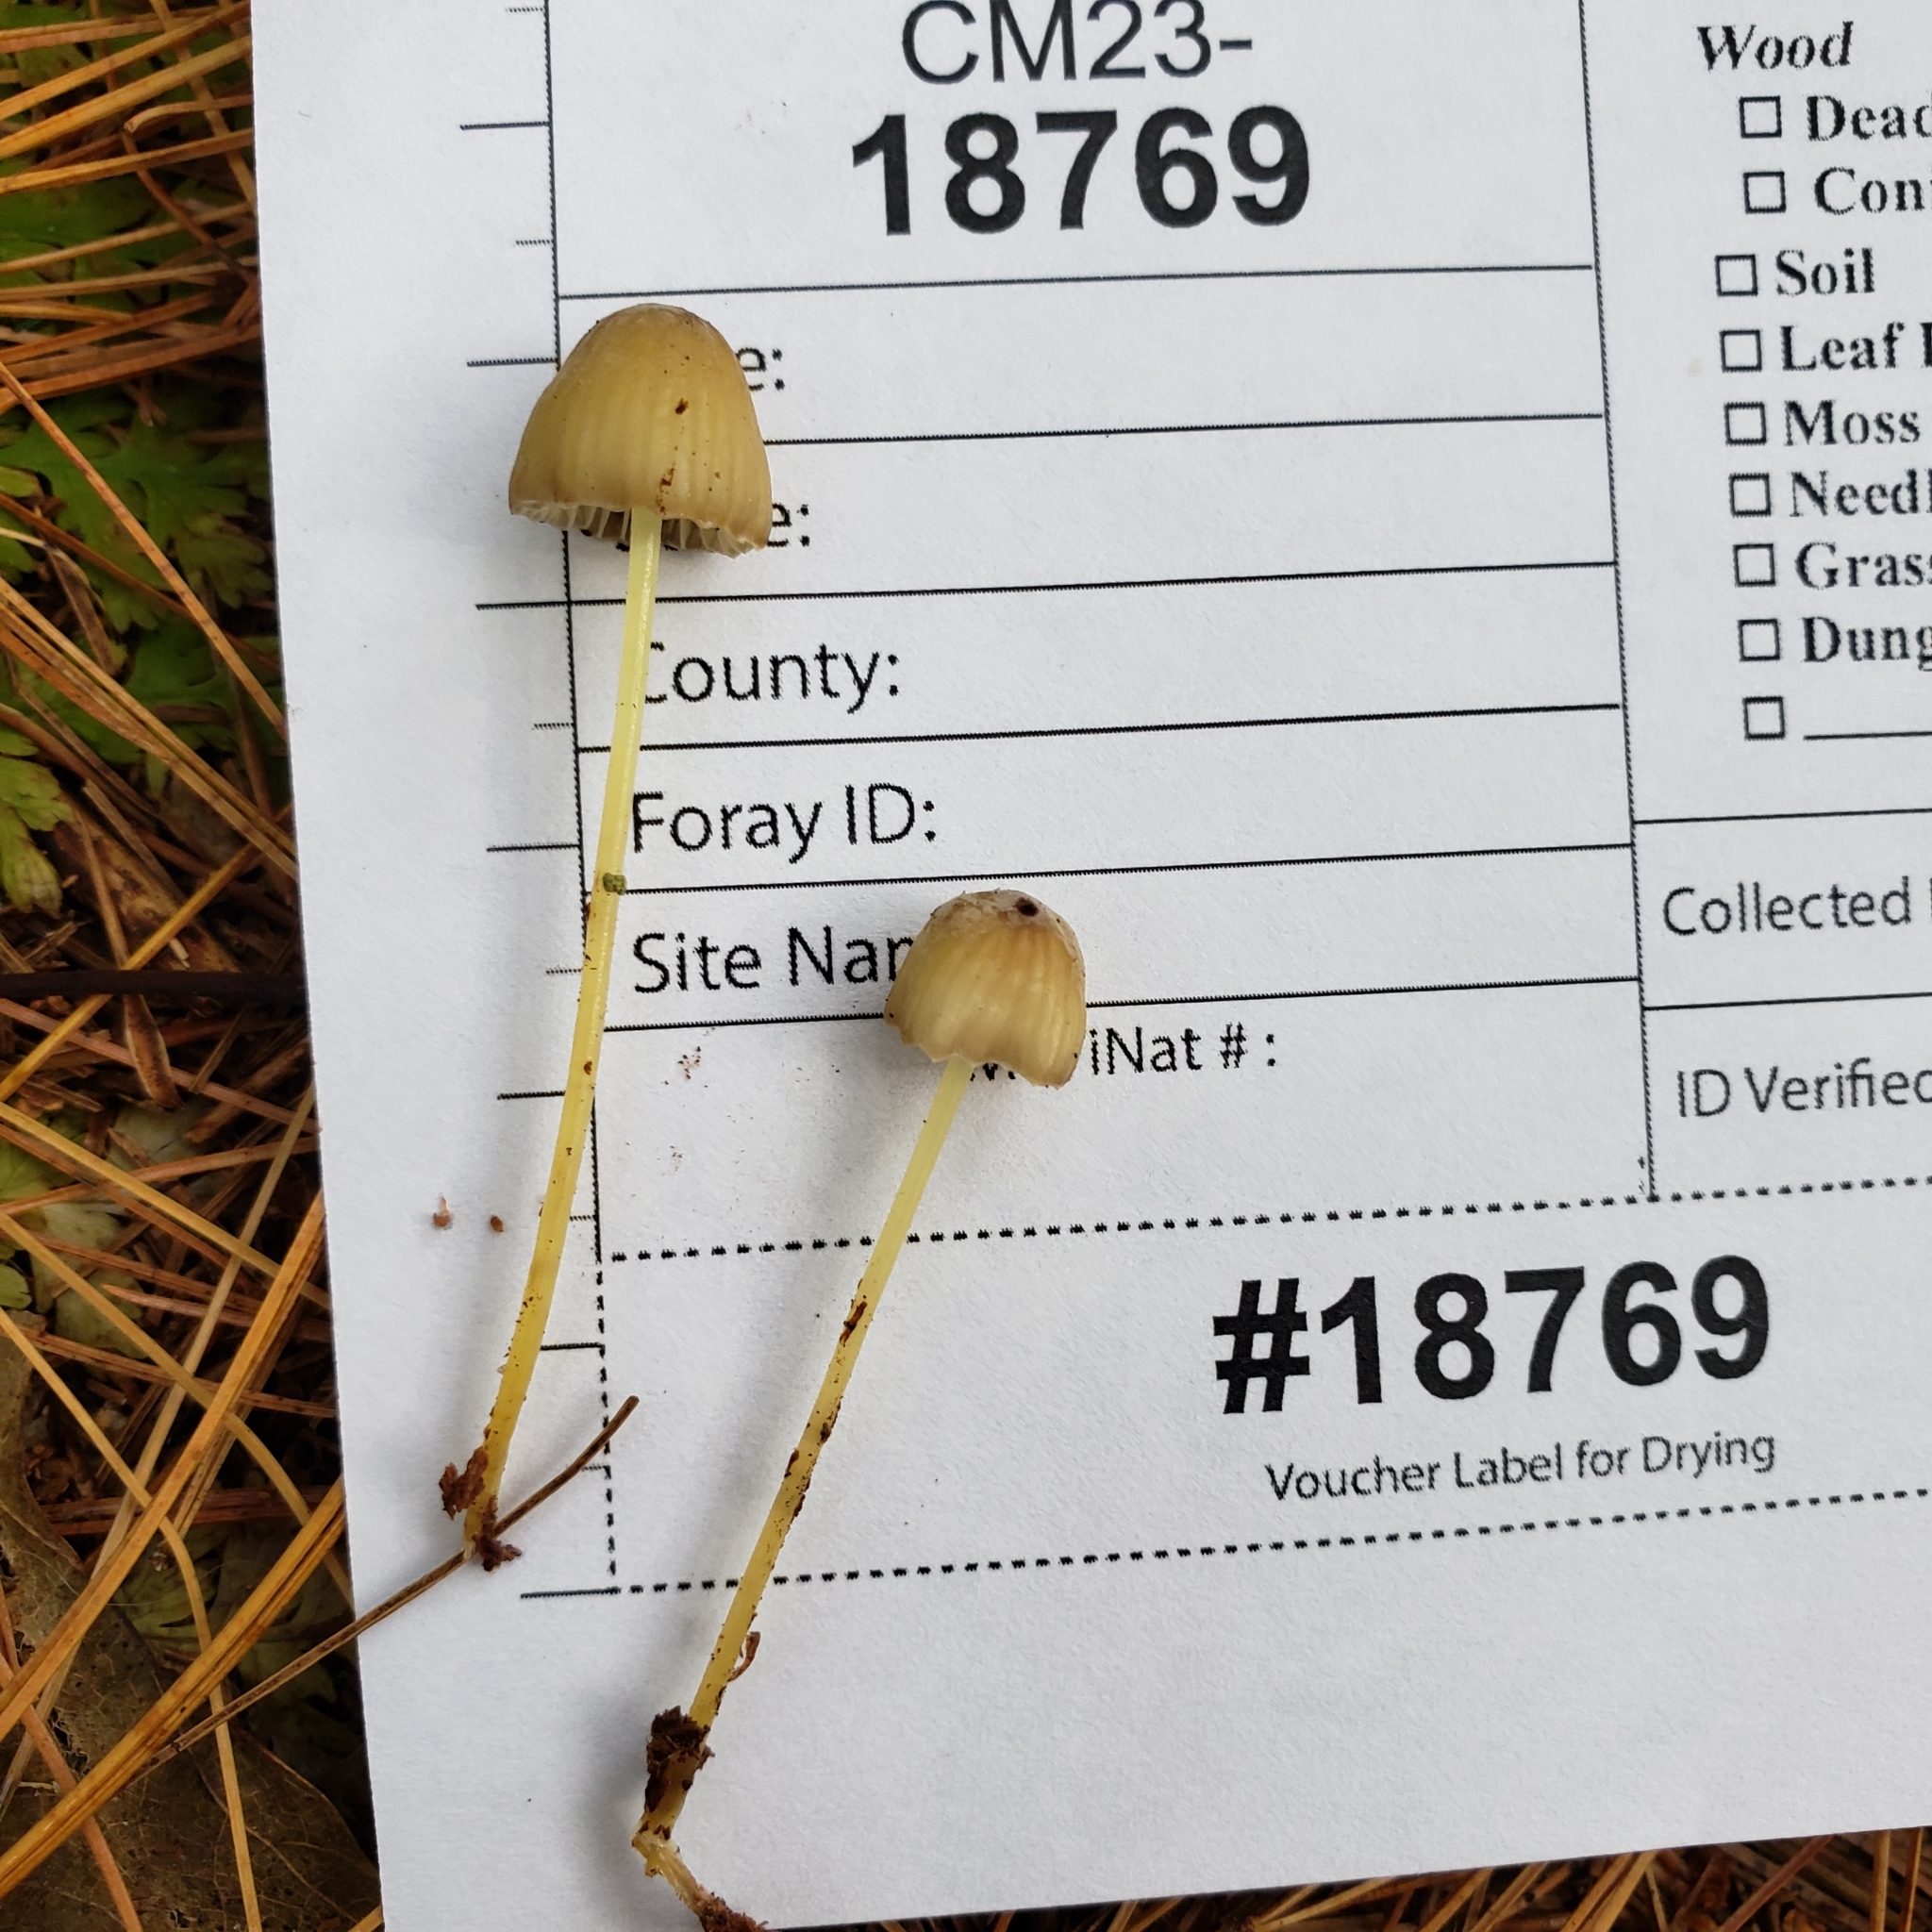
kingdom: Fungi
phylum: Basidiomycota
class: Agaricomycetes
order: Agaricales
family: Mycenaceae
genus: Mycena
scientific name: Mycena epipterygia
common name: Yellowleg bonnet
